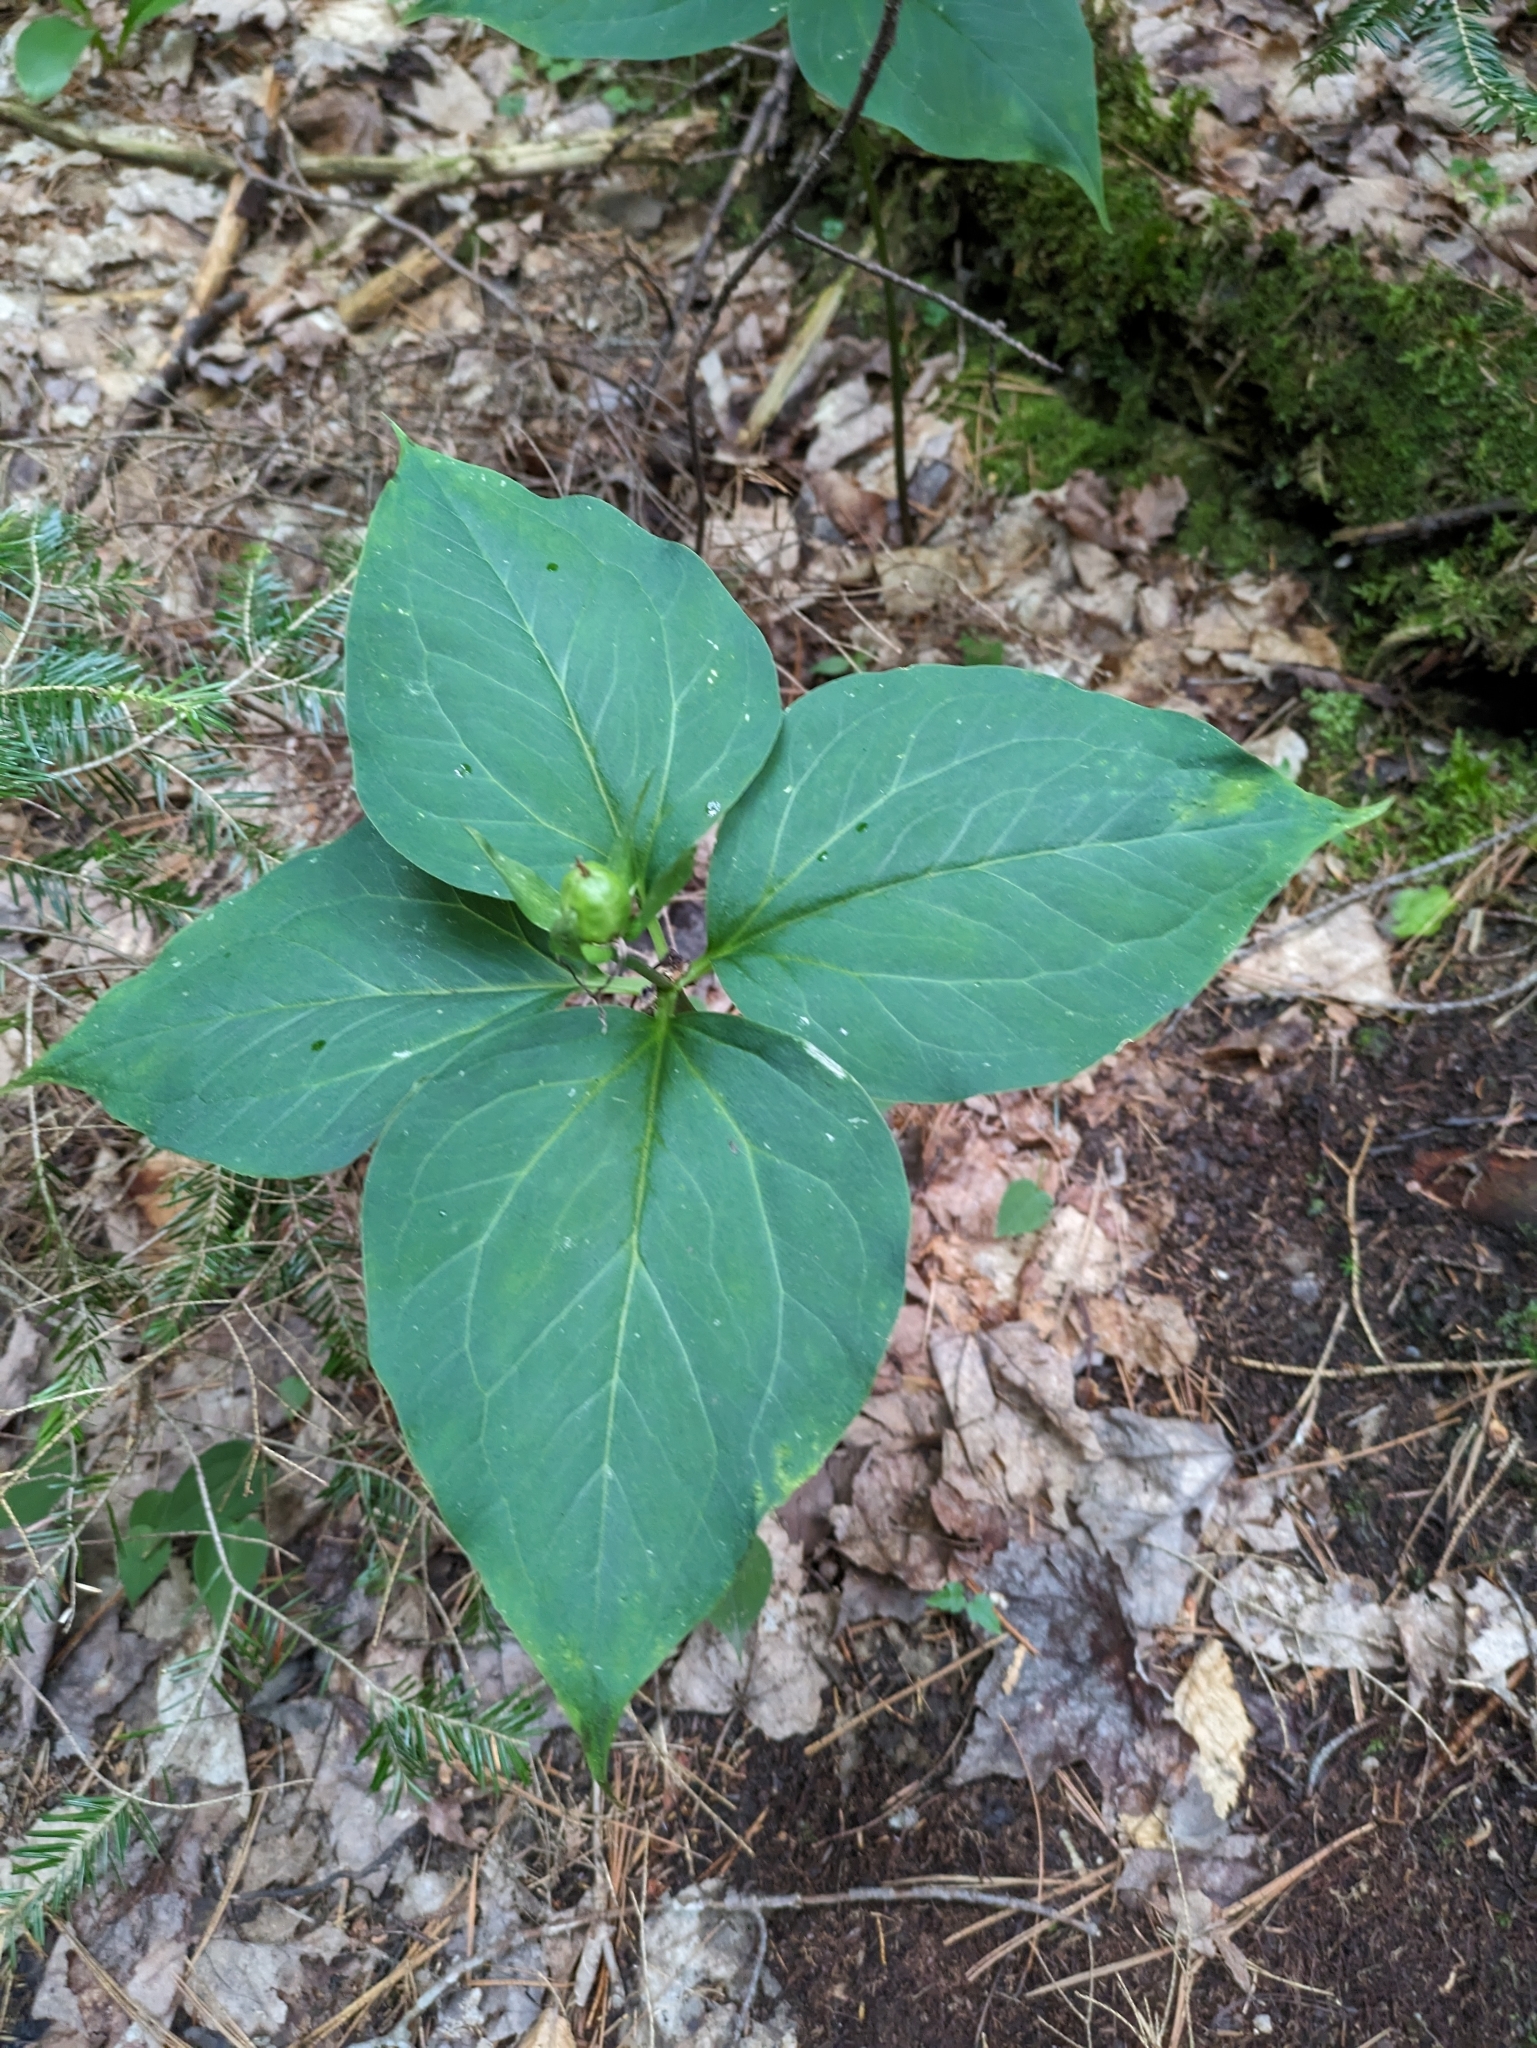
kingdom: Plantae
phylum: Tracheophyta
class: Liliopsida
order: Liliales
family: Melanthiaceae
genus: Trillium
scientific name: Trillium undulatum
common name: Paint trillium
